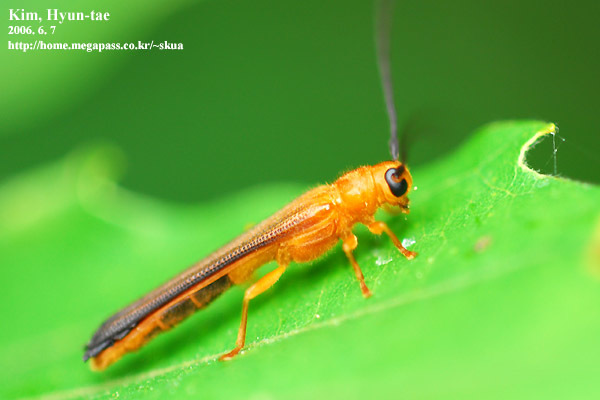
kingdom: Animalia
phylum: Arthropoda
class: Insecta
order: Coleoptera
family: Cerambycidae
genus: Oberea
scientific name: Oberea atropunctata
